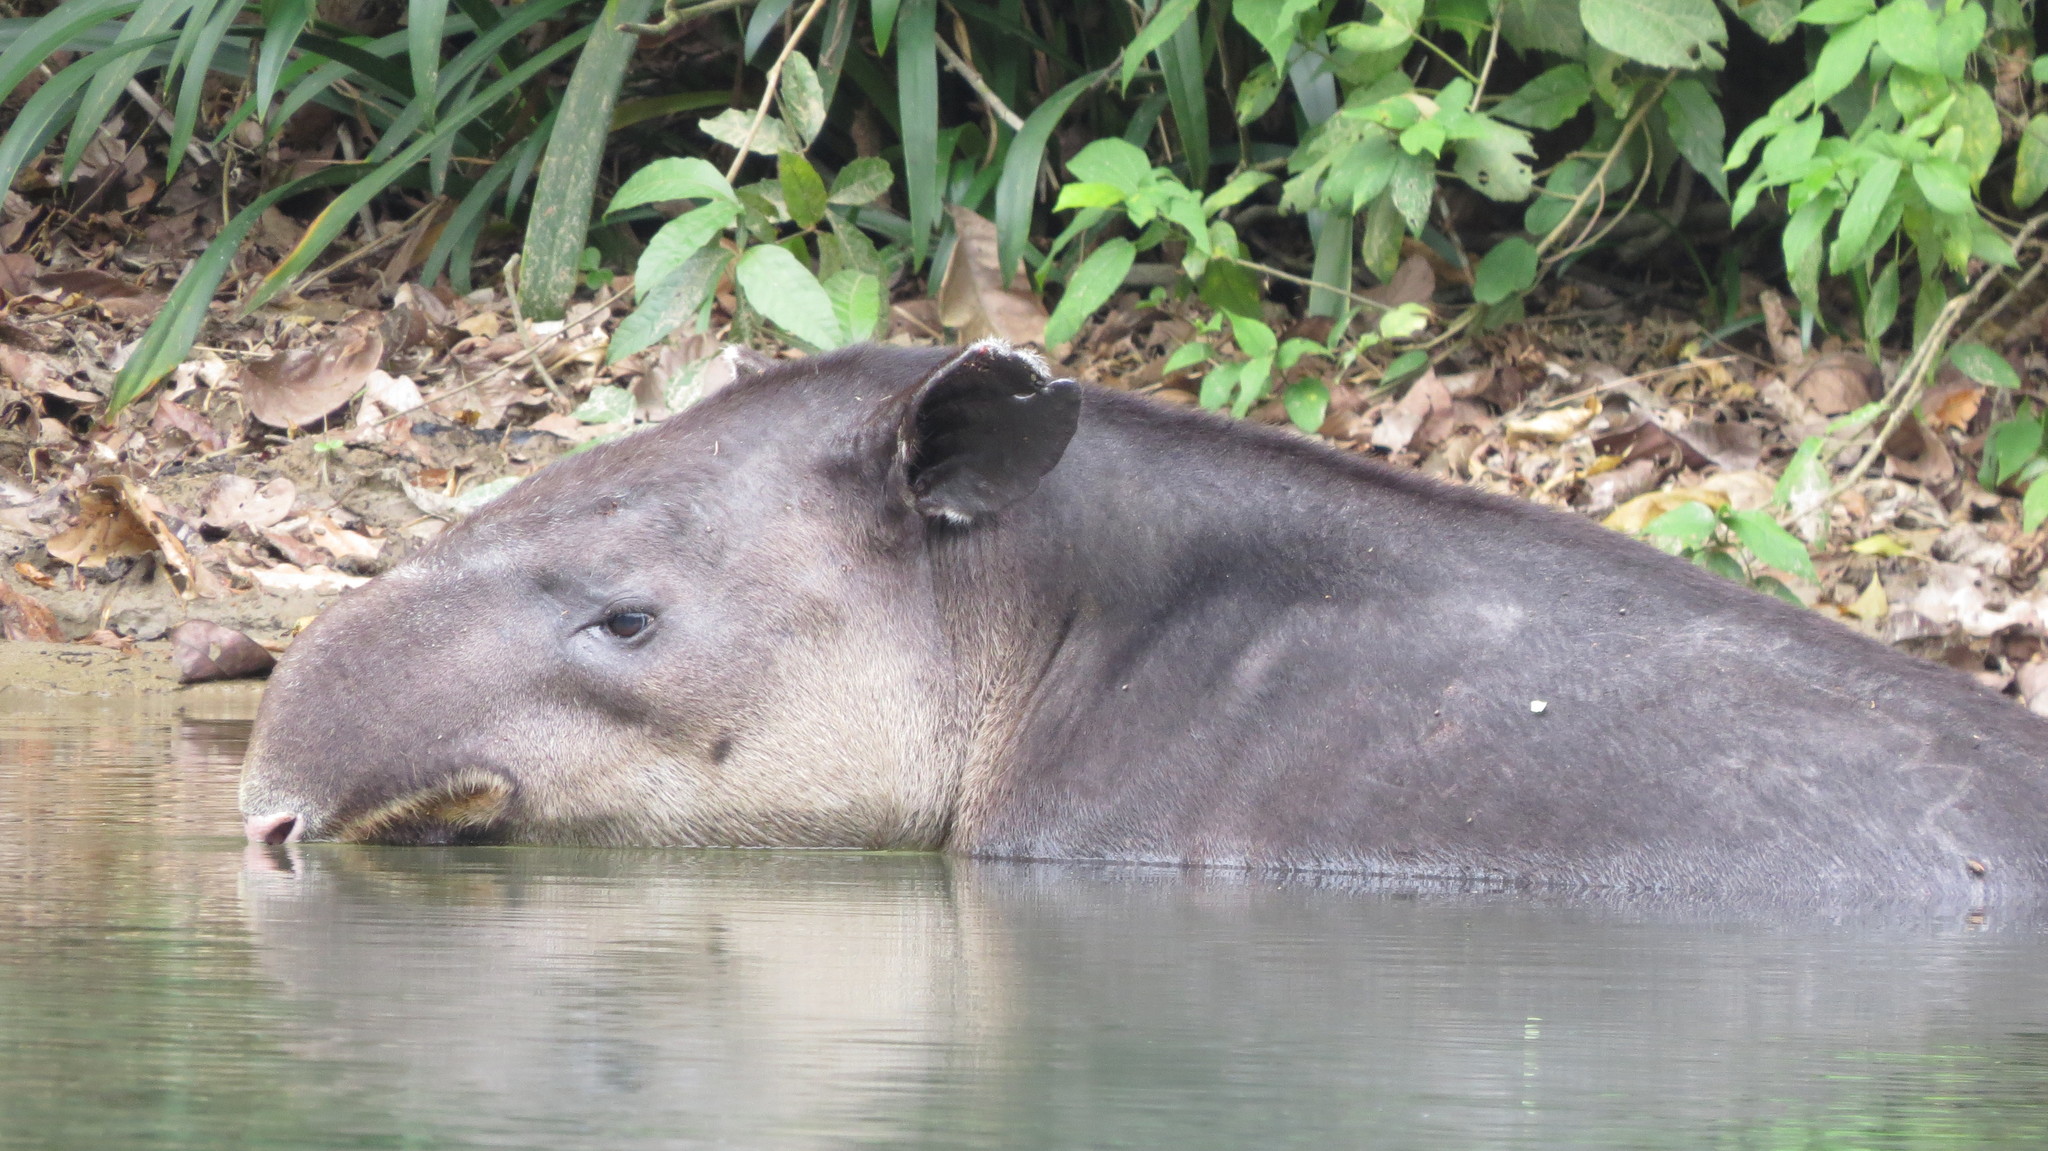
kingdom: Animalia
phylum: Chordata
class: Mammalia
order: Perissodactyla
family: Tapiridae
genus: Tapirella
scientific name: Tapirella bairdii
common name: Baird's tapir
